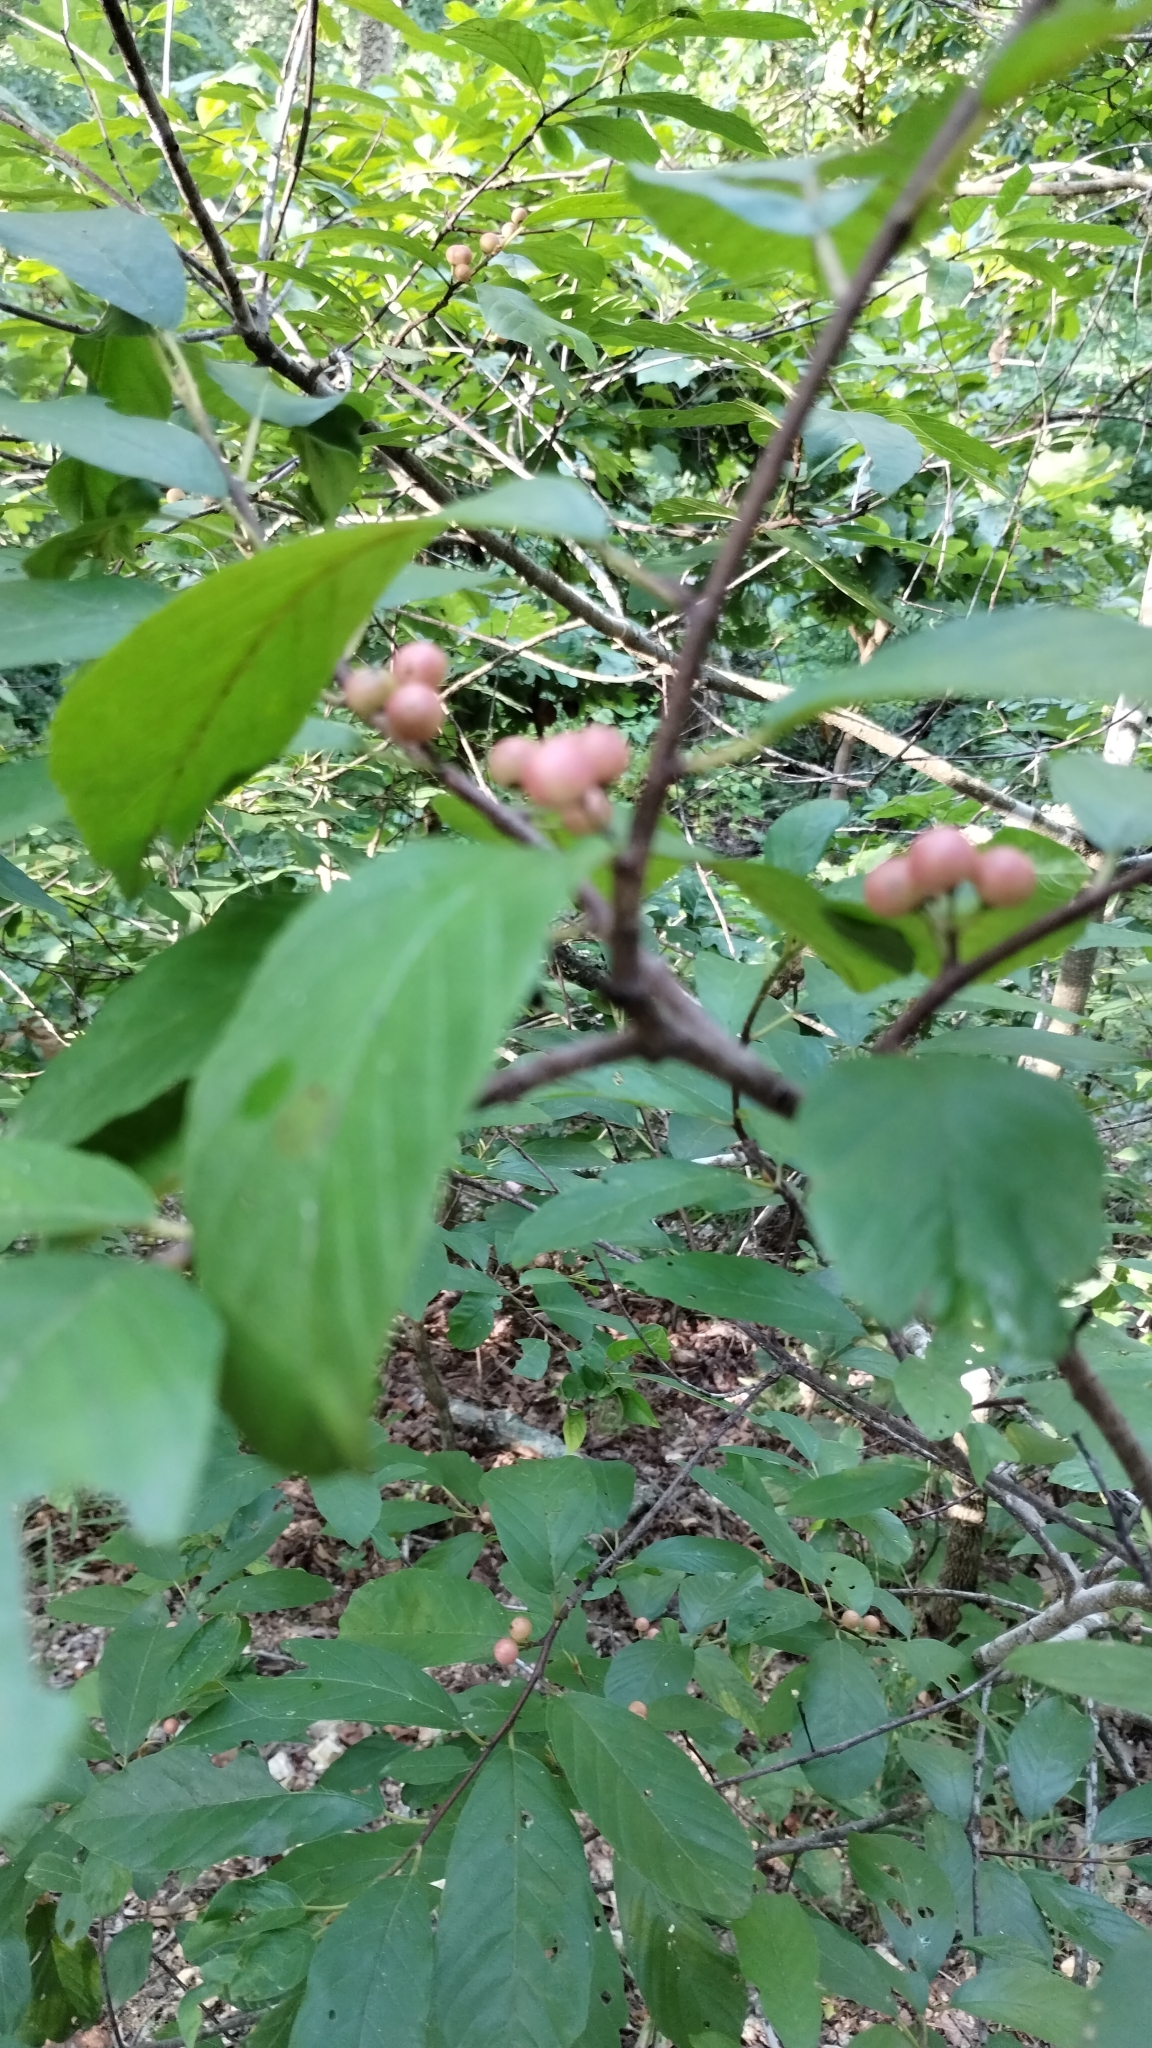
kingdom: Plantae
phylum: Tracheophyta
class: Magnoliopsida
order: Rosales
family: Rhamnaceae
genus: Frangula
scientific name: Frangula caroliniana
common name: Carolina buckthorn
